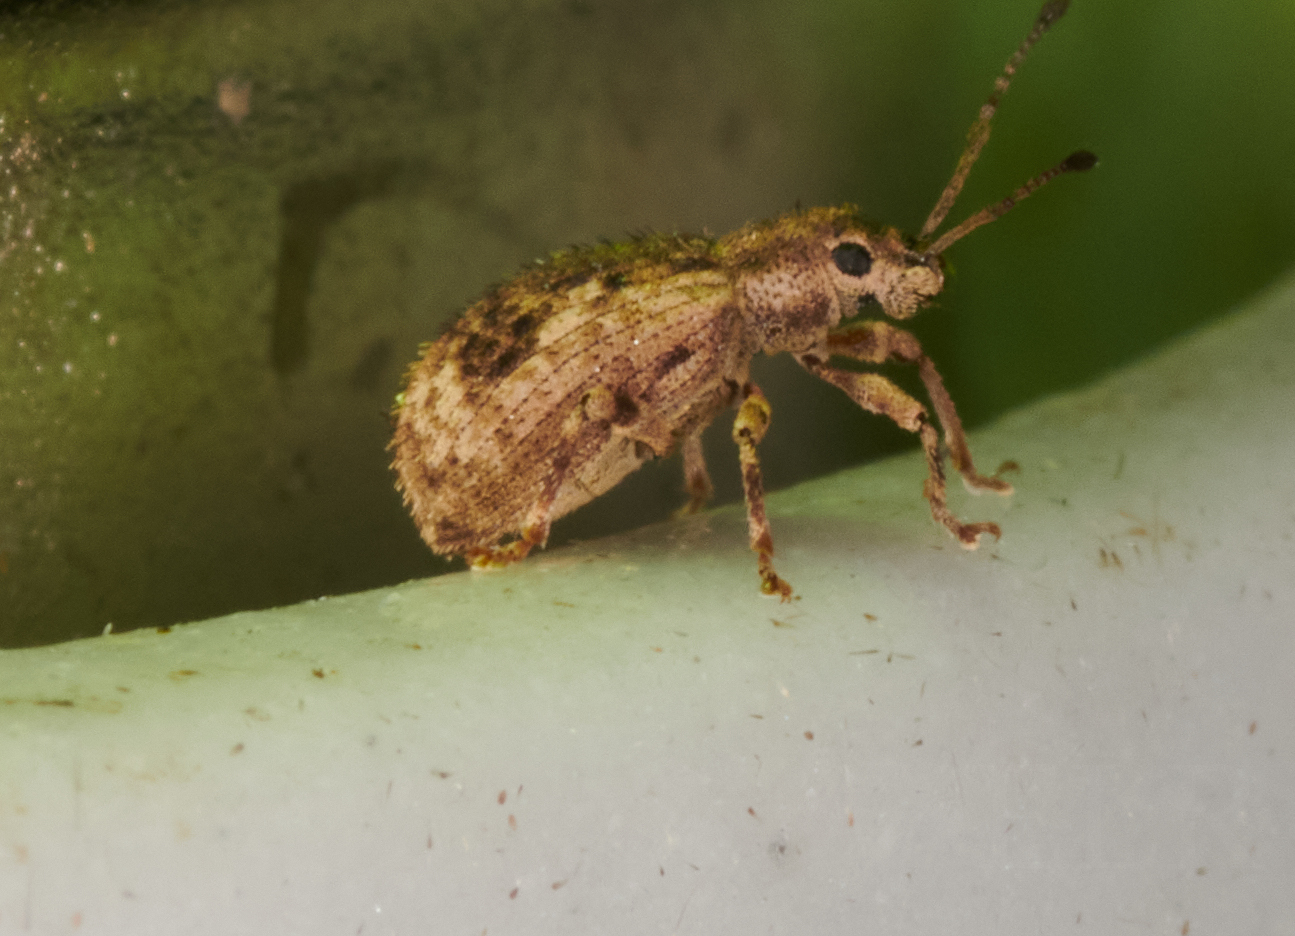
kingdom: Animalia
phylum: Arthropoda
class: Insecta
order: Coleoptera
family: Curculionidae
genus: Pseudoedophrys
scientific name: Pseudoedophrys hilleri
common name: Weevil
